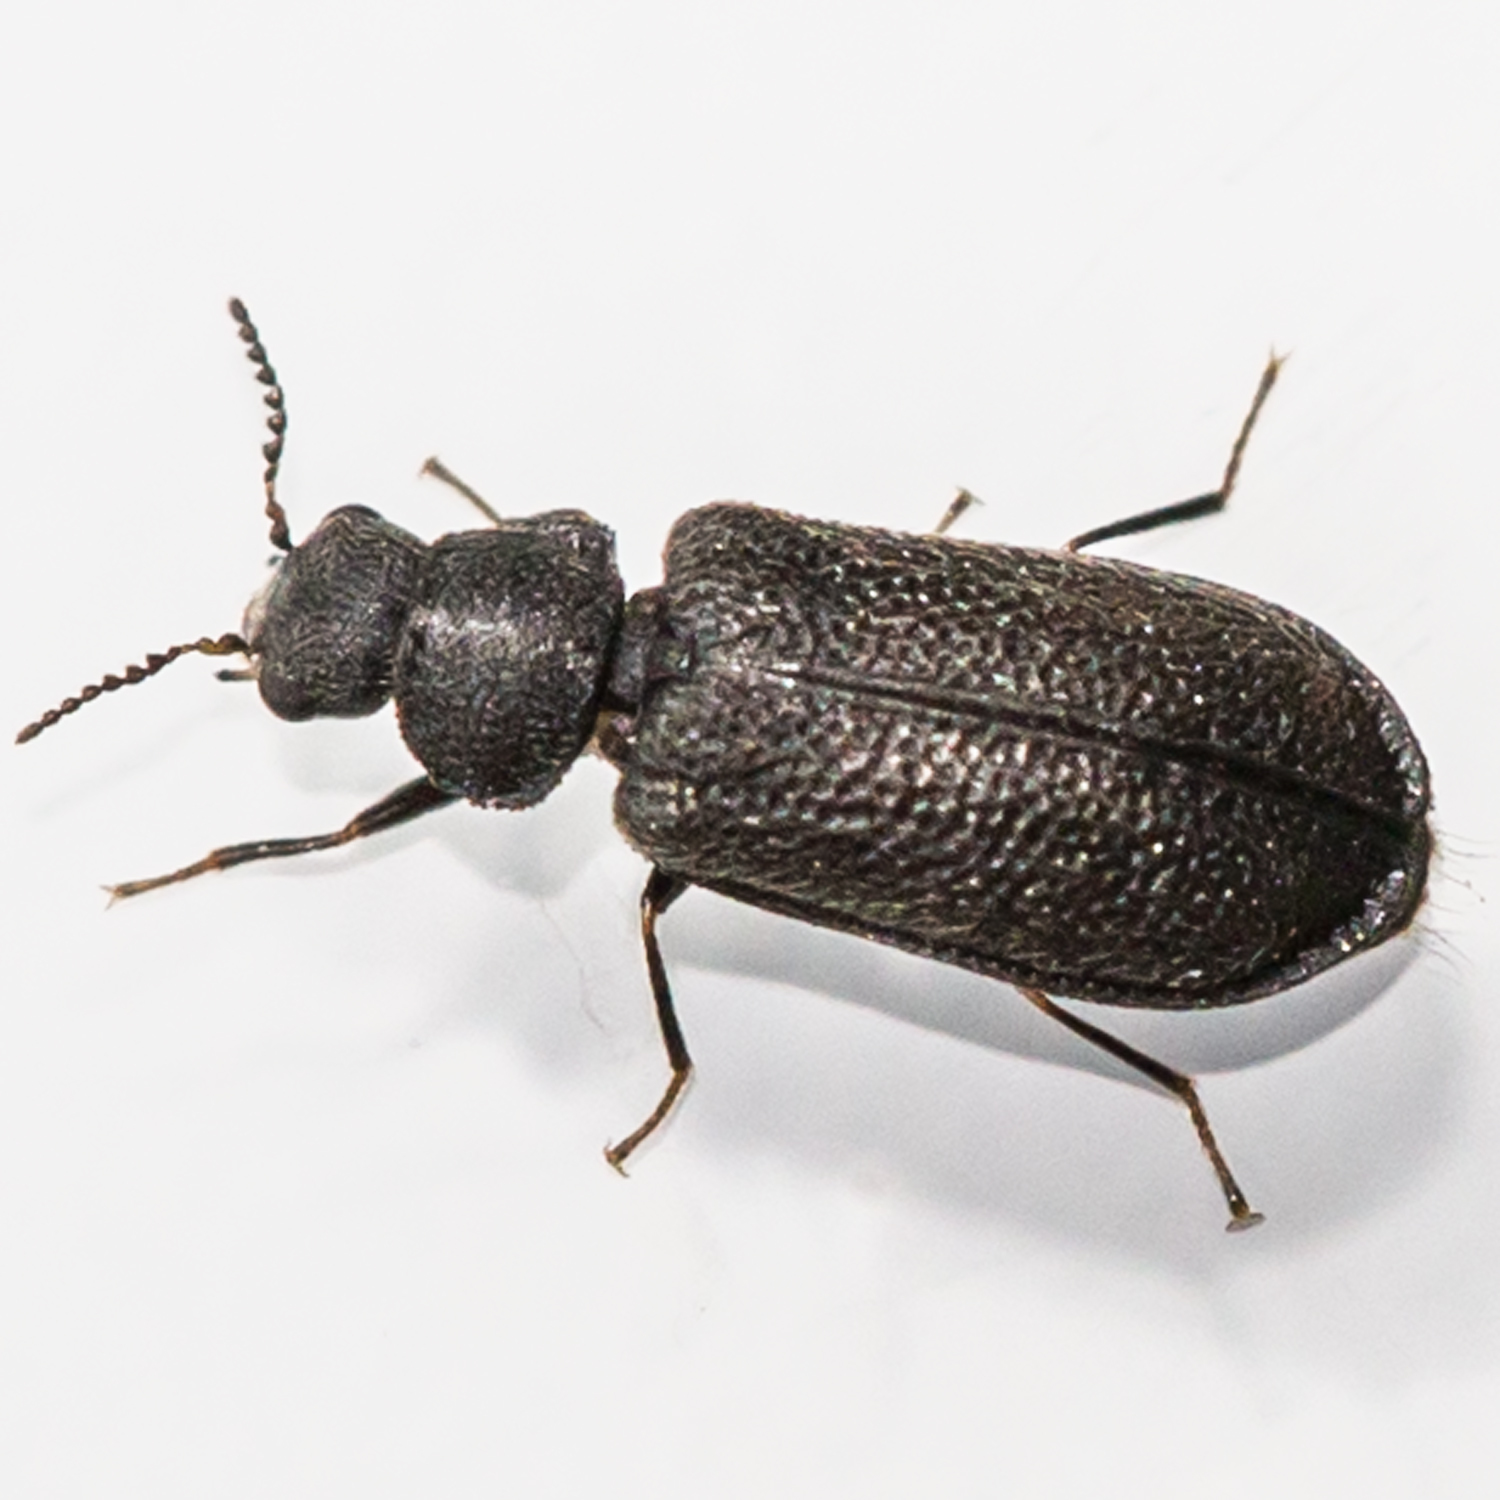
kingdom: Animalia
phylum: Arthropoda
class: Insecta
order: Coleoptera
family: Melyridae
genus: Melyrodes
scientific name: Melyrodes
